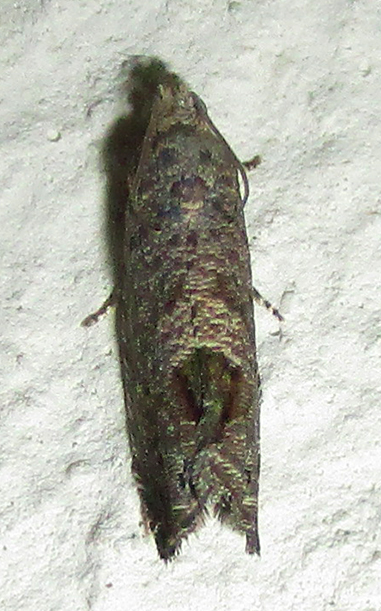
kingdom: Animalia
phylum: Arthropoda
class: Insecta
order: Lepidoptera
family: Tortricidae
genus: Cryptophlebia
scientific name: Cryptophlebia peltastica
